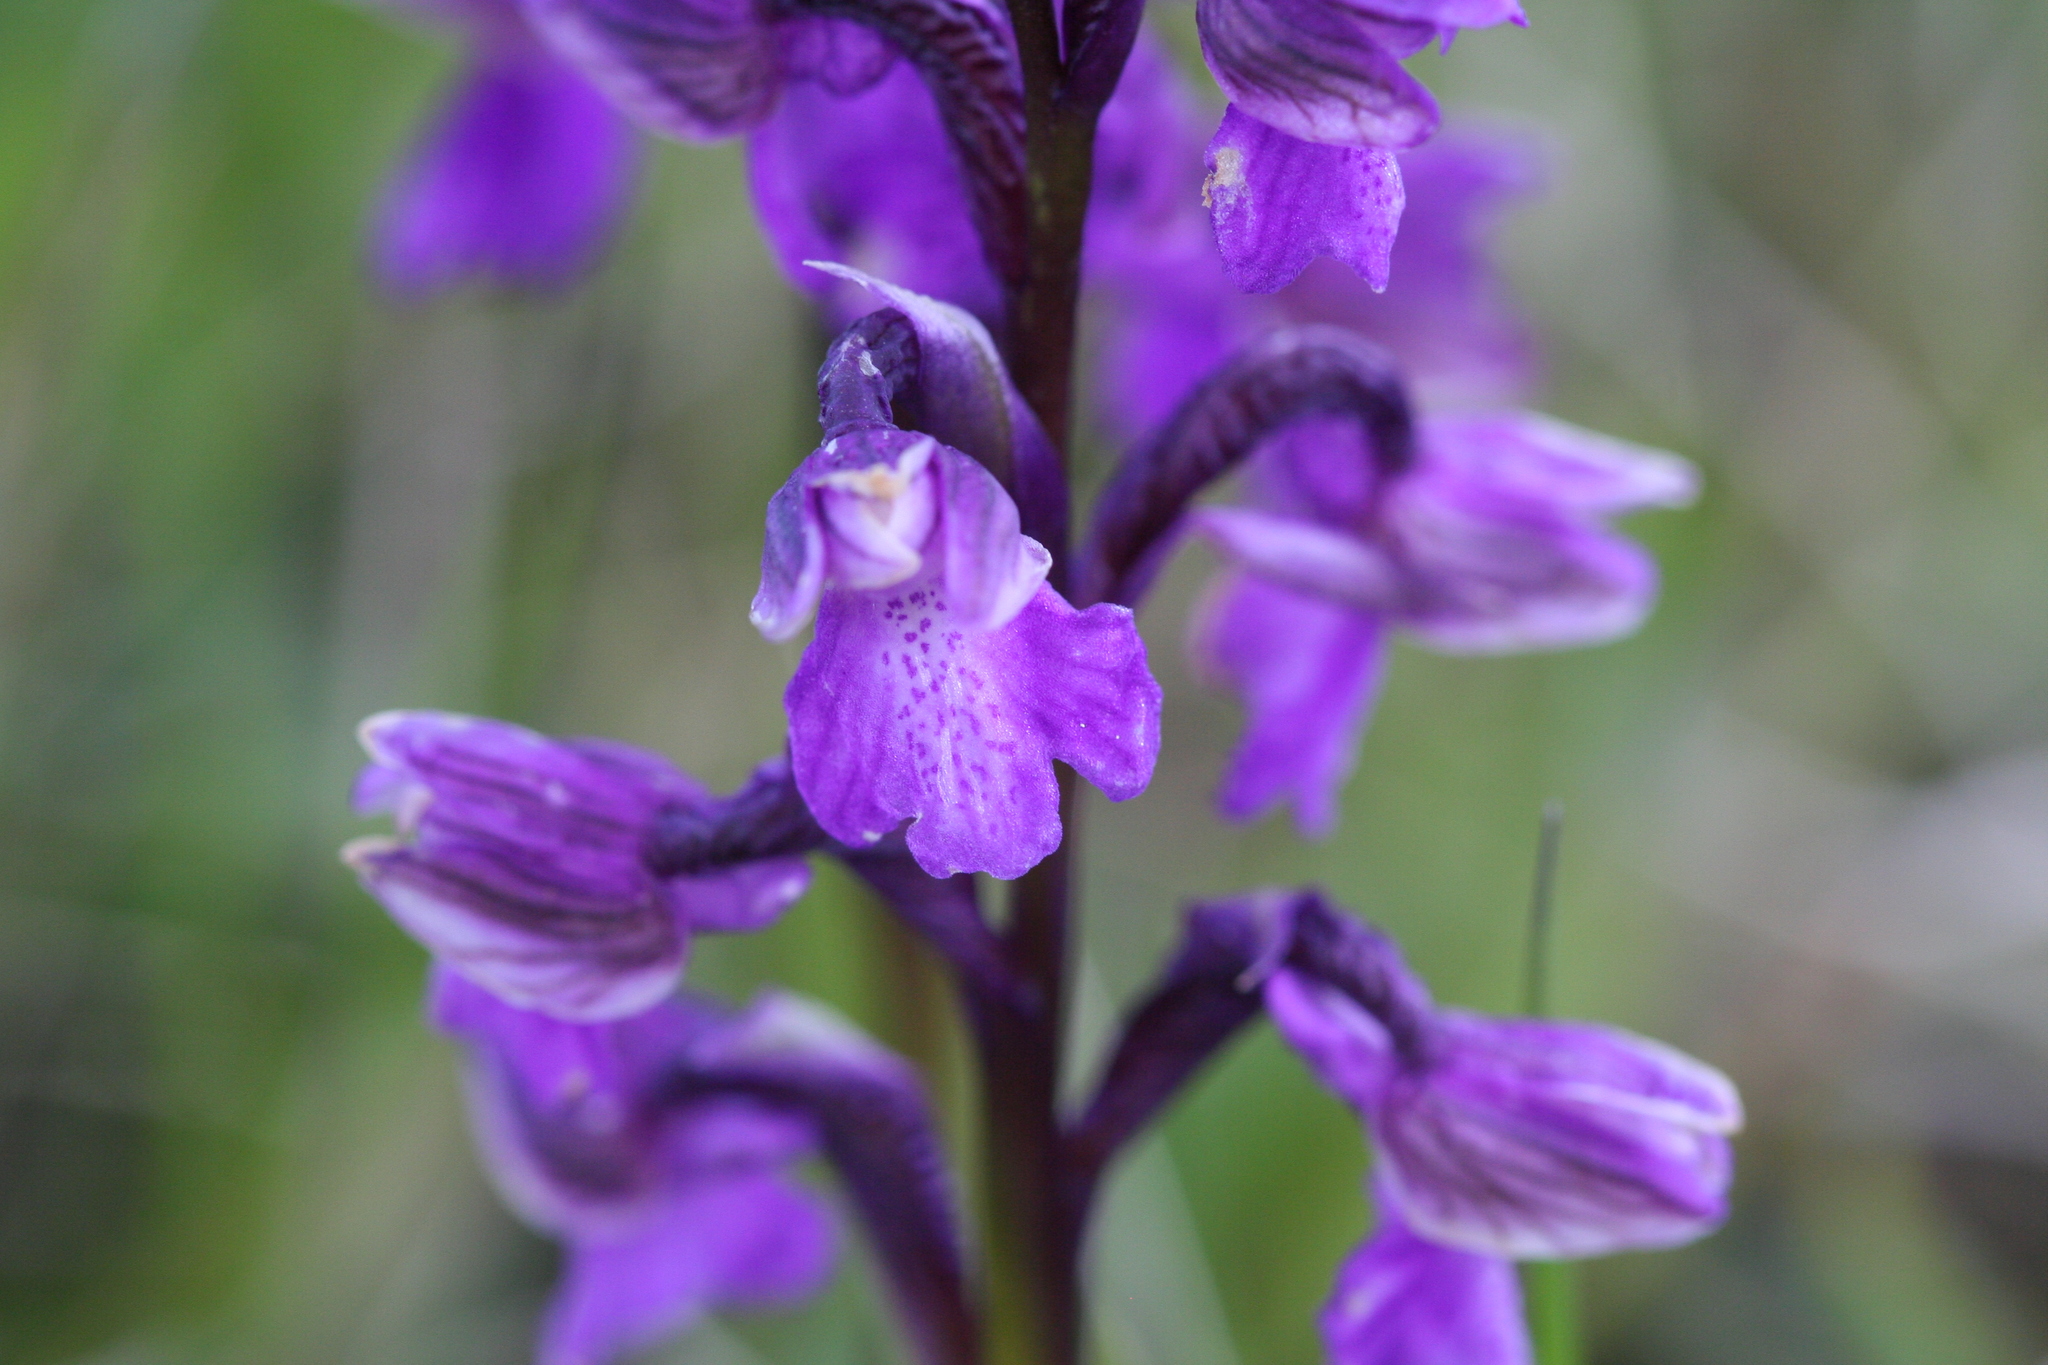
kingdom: Plantae
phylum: Tracheophyta
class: Liliopsida
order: Asparagales
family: Orchidaceae
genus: Anacamptis
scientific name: Anacamptis morio
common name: Green-winged orchid
